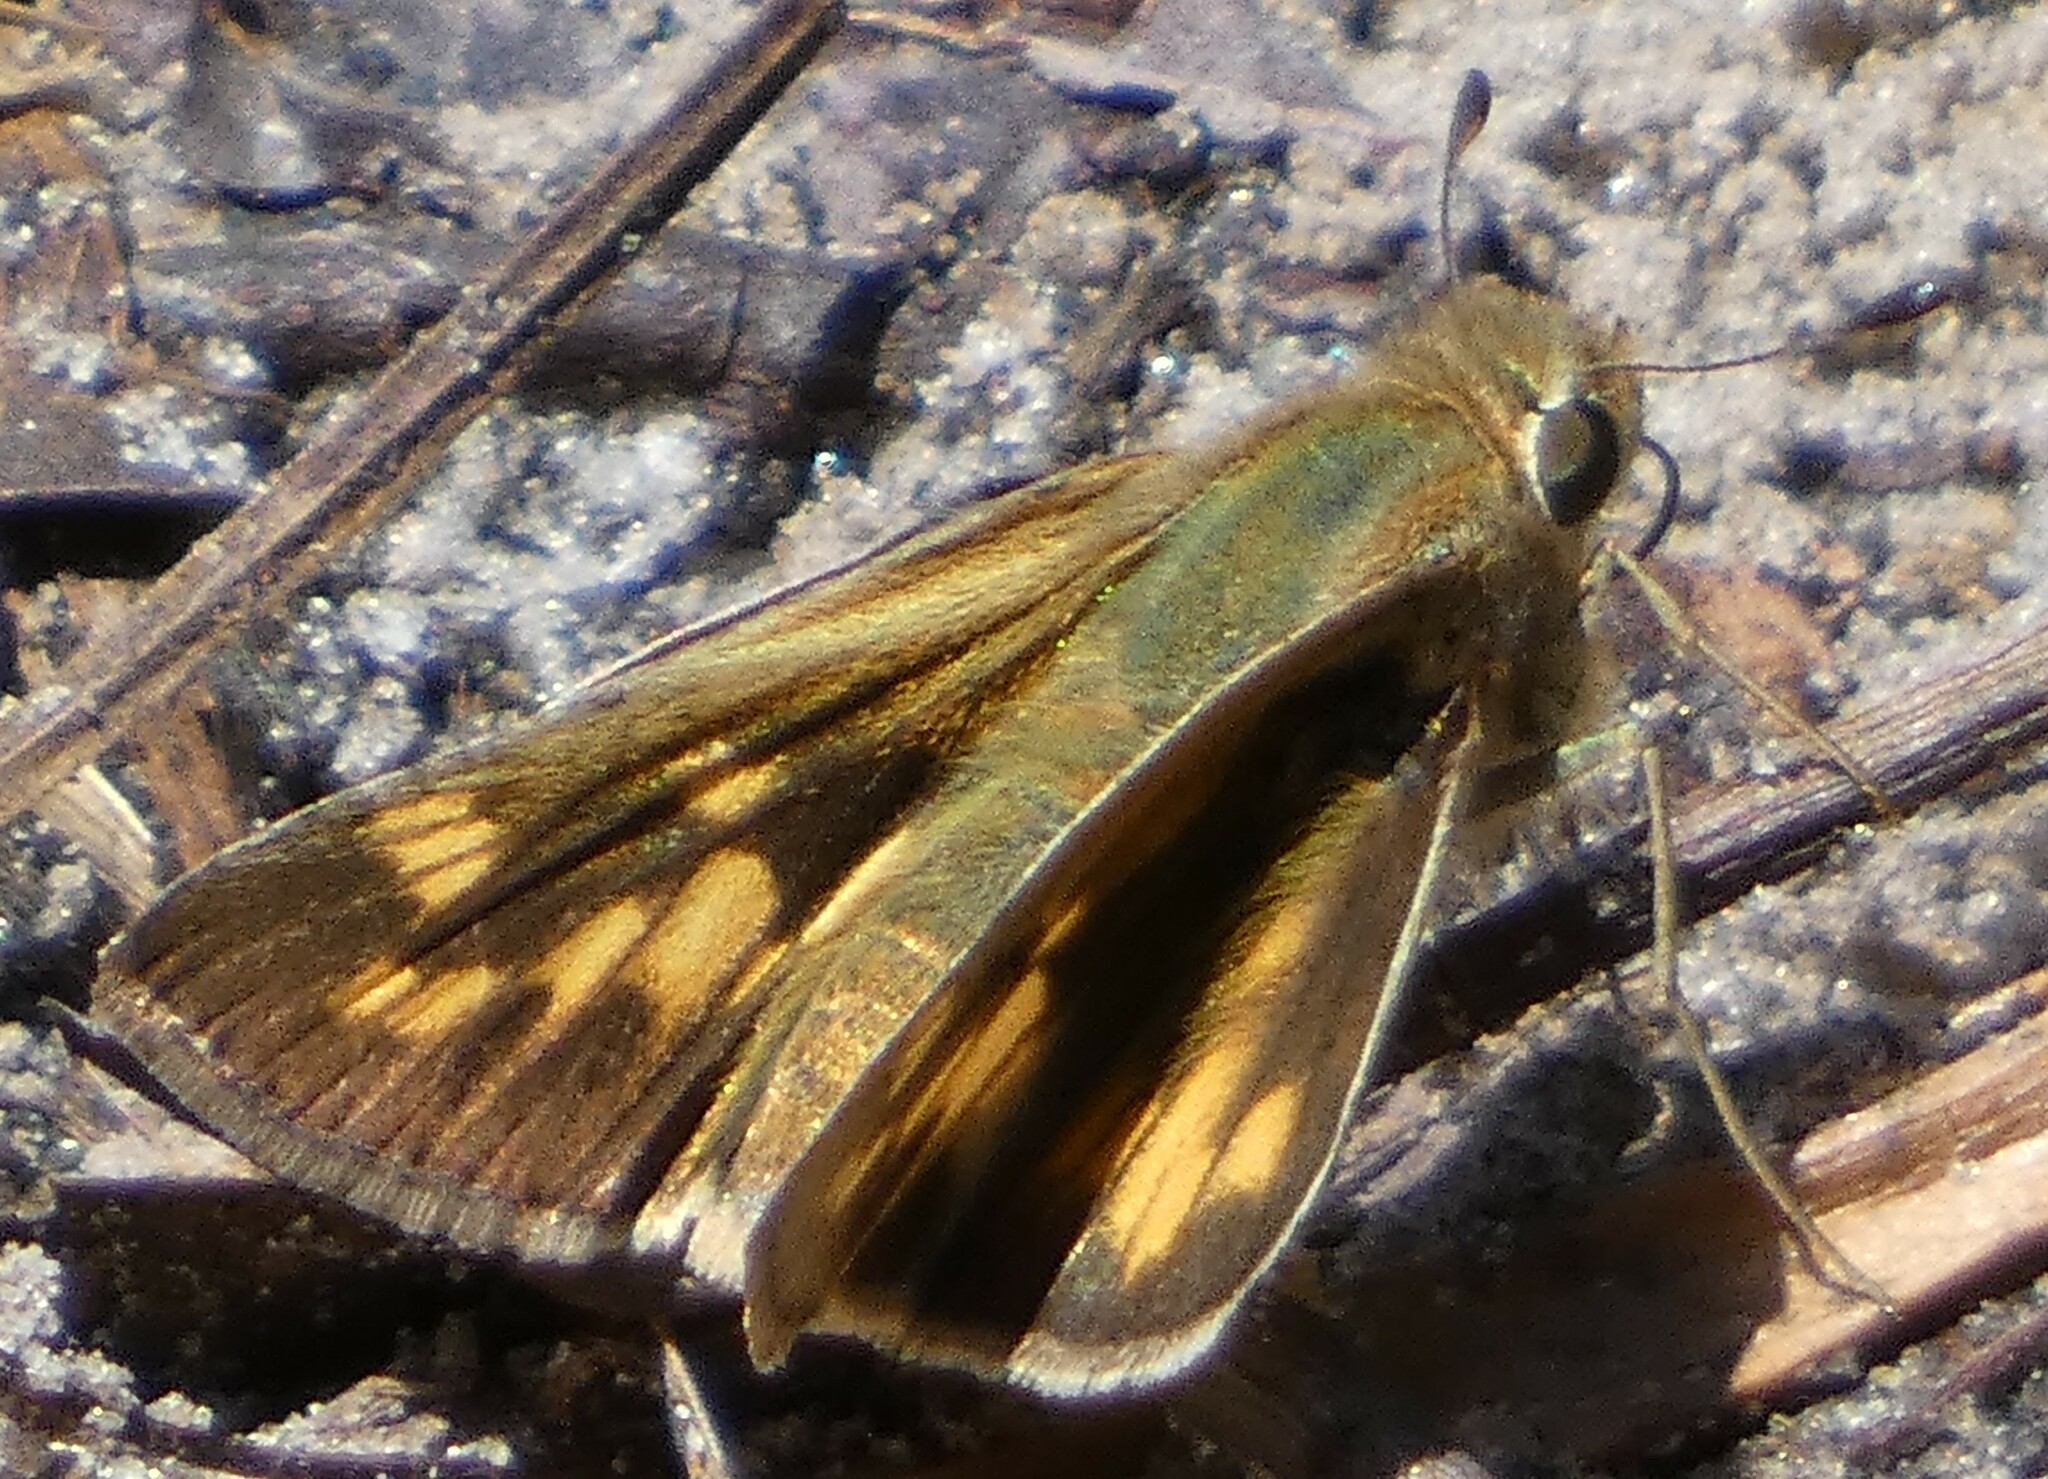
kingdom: Animalia
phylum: Arthropoda
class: Insecta
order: Lepidoptera
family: Hesperiidae
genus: Hylephila
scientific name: Hylephila phyleus
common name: Fiery skipper
